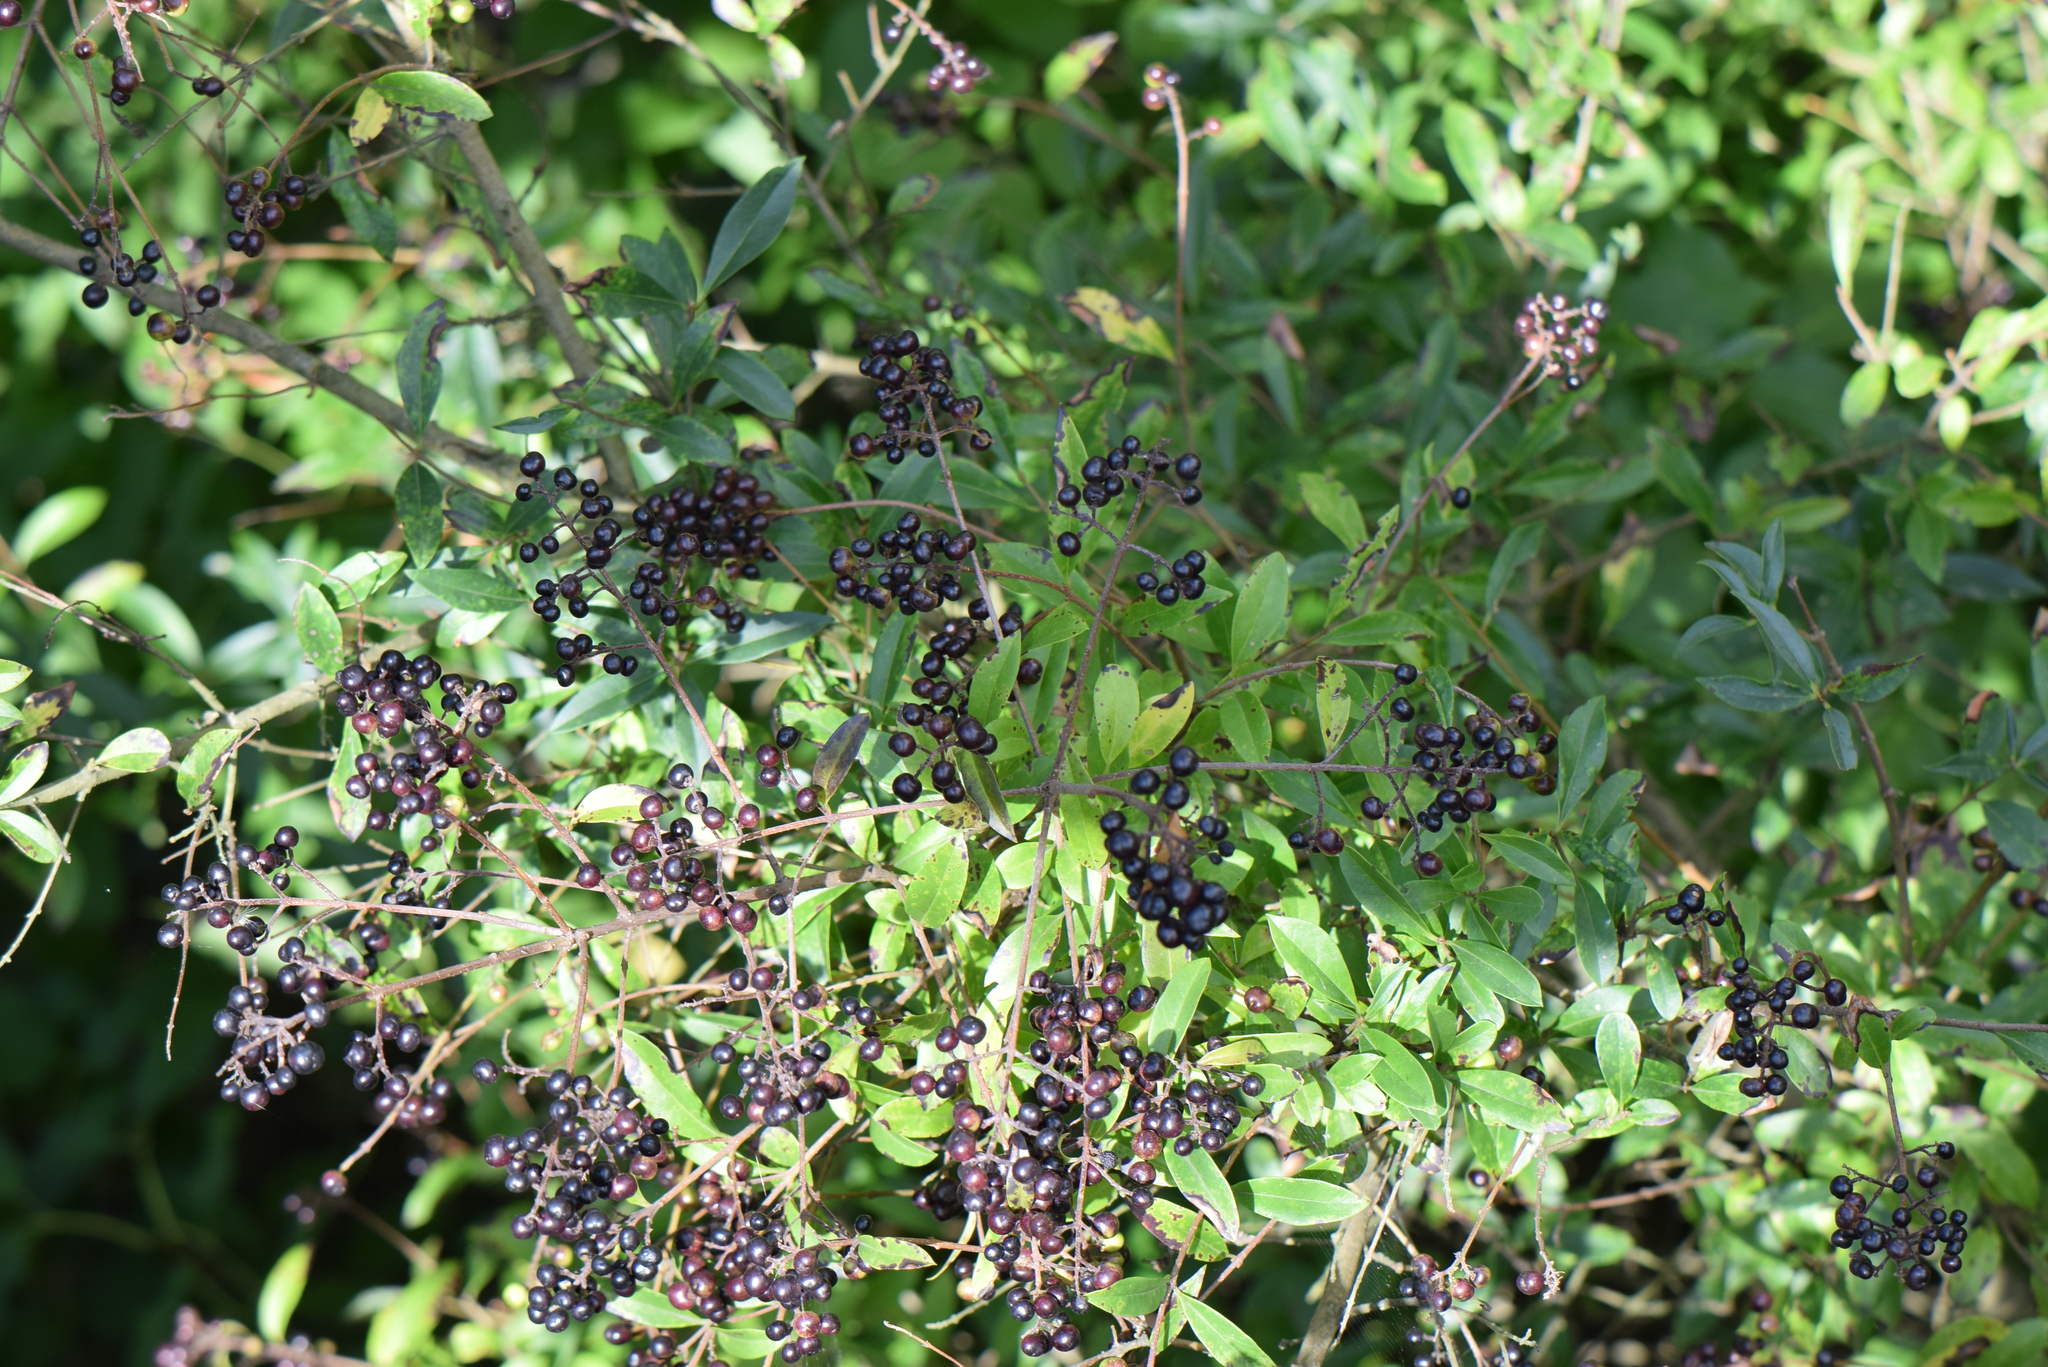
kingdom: Plantae
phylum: Tracheophyta
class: Magnoliopsida
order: Lamiales
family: Oleaceae
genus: Ligustrum
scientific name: Ligustrum vulgare
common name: Wild privet
